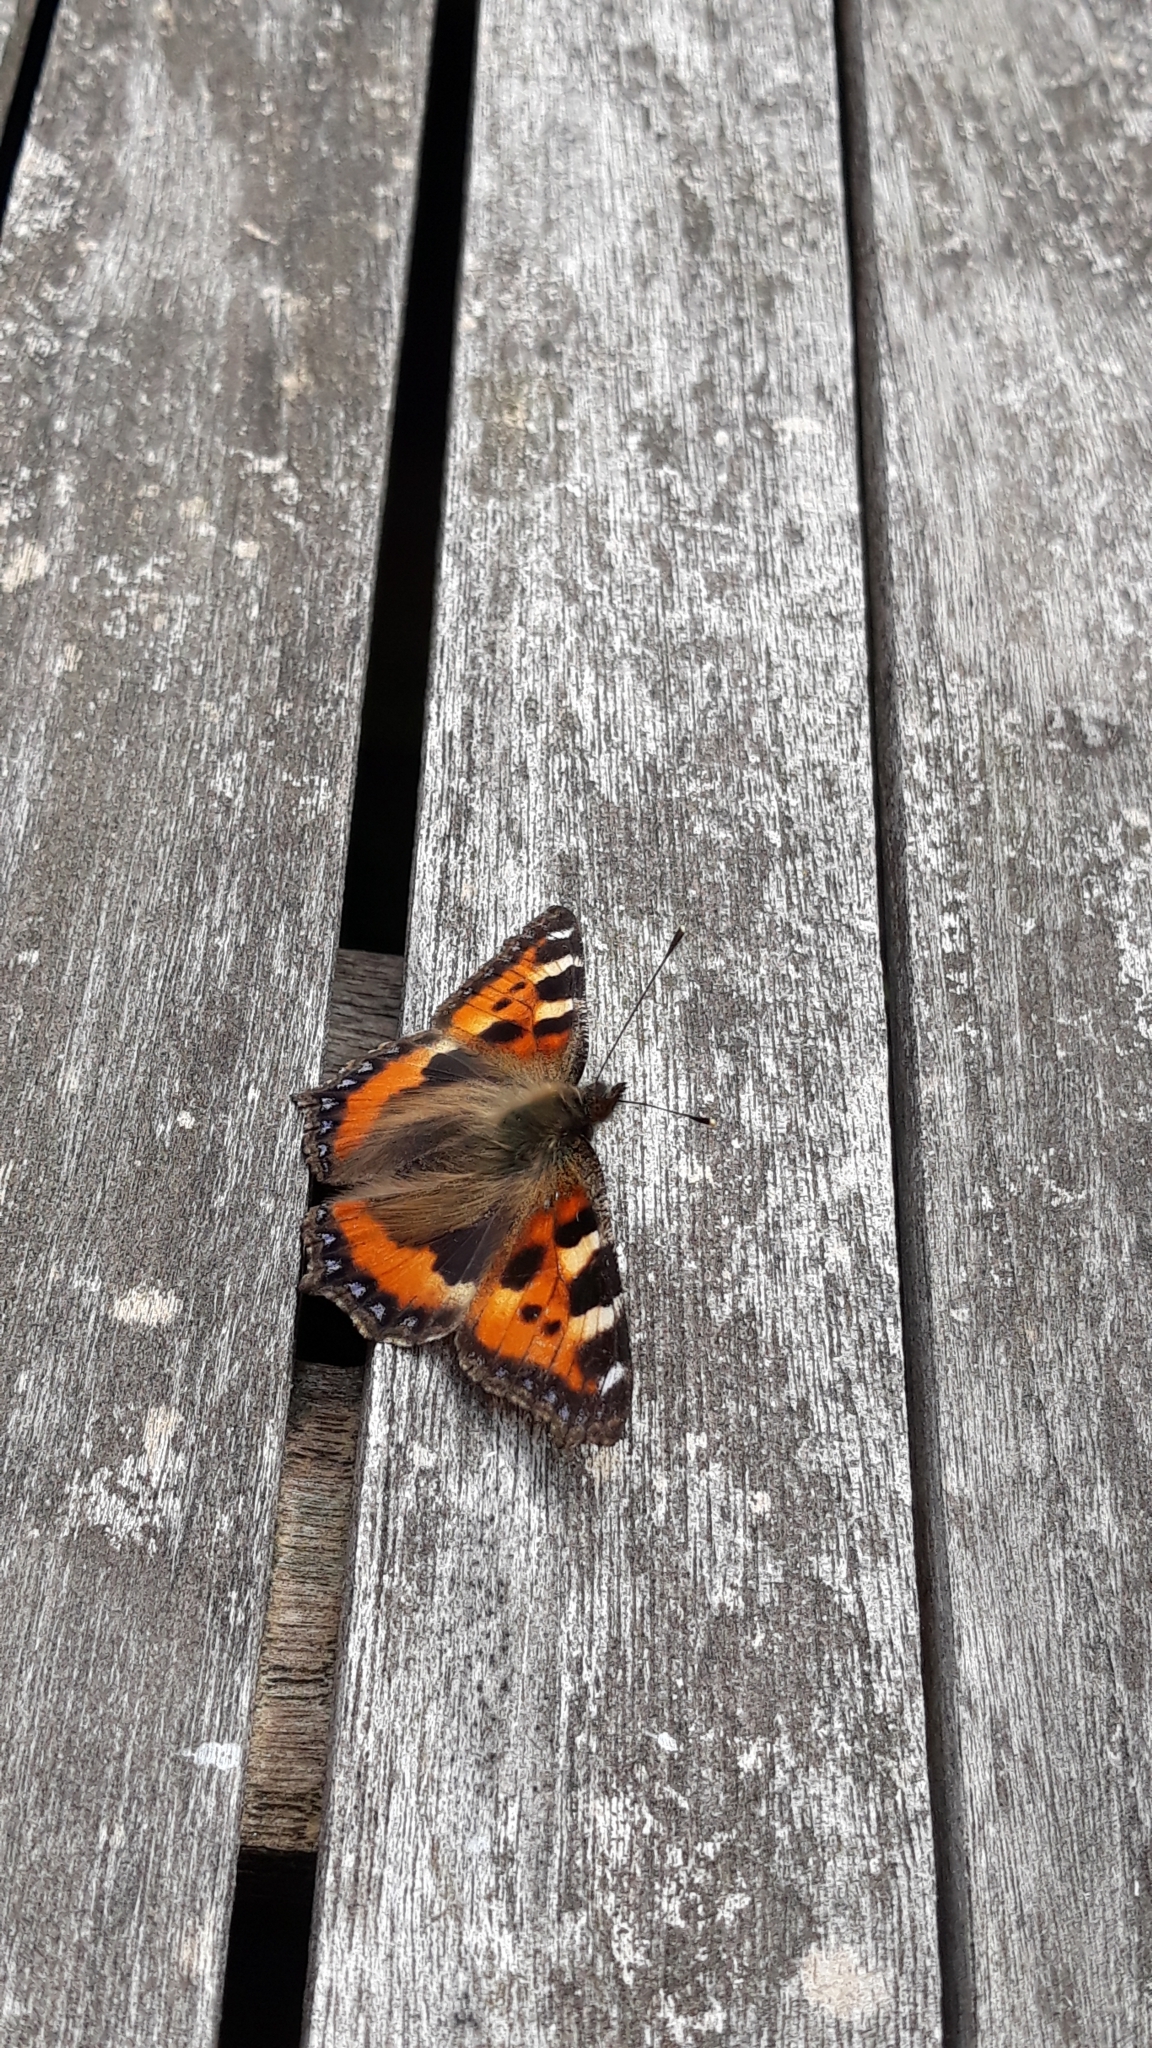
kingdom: Animalia
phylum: Arthropoda
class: Insecta
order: Lepidoptera
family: Nymphalidae
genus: Aglais
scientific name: Aglais urticae
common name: Small tortoiseshell
